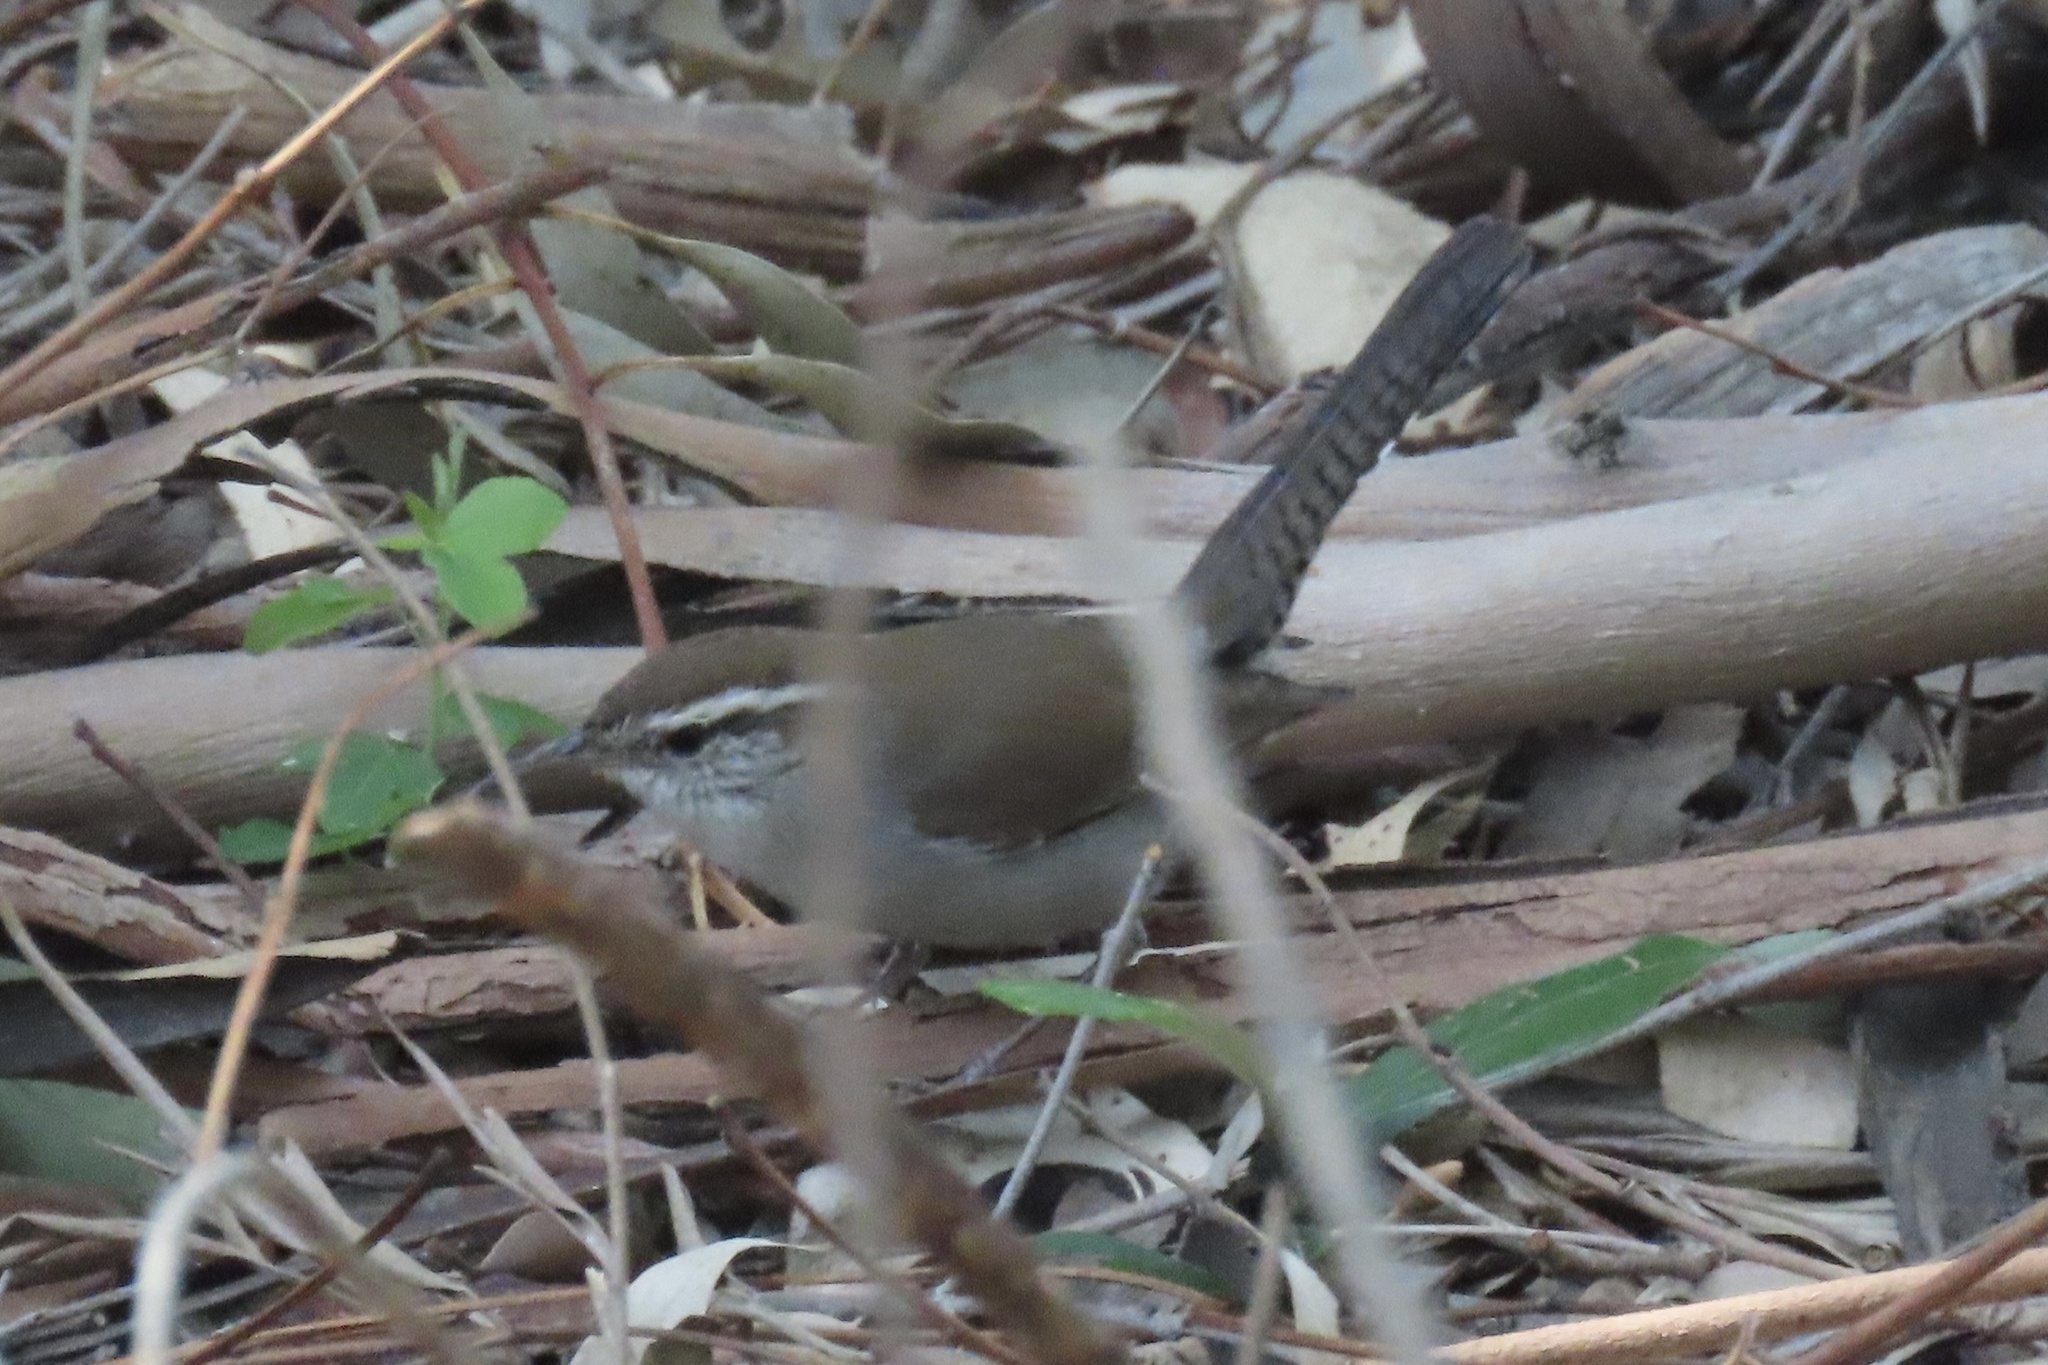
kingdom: Animalia
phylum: Chordata
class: Aves
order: Passeriformes
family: Troglodytidae
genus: Thryomanes
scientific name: Thryomanes bewickii
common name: Bewick's wren
